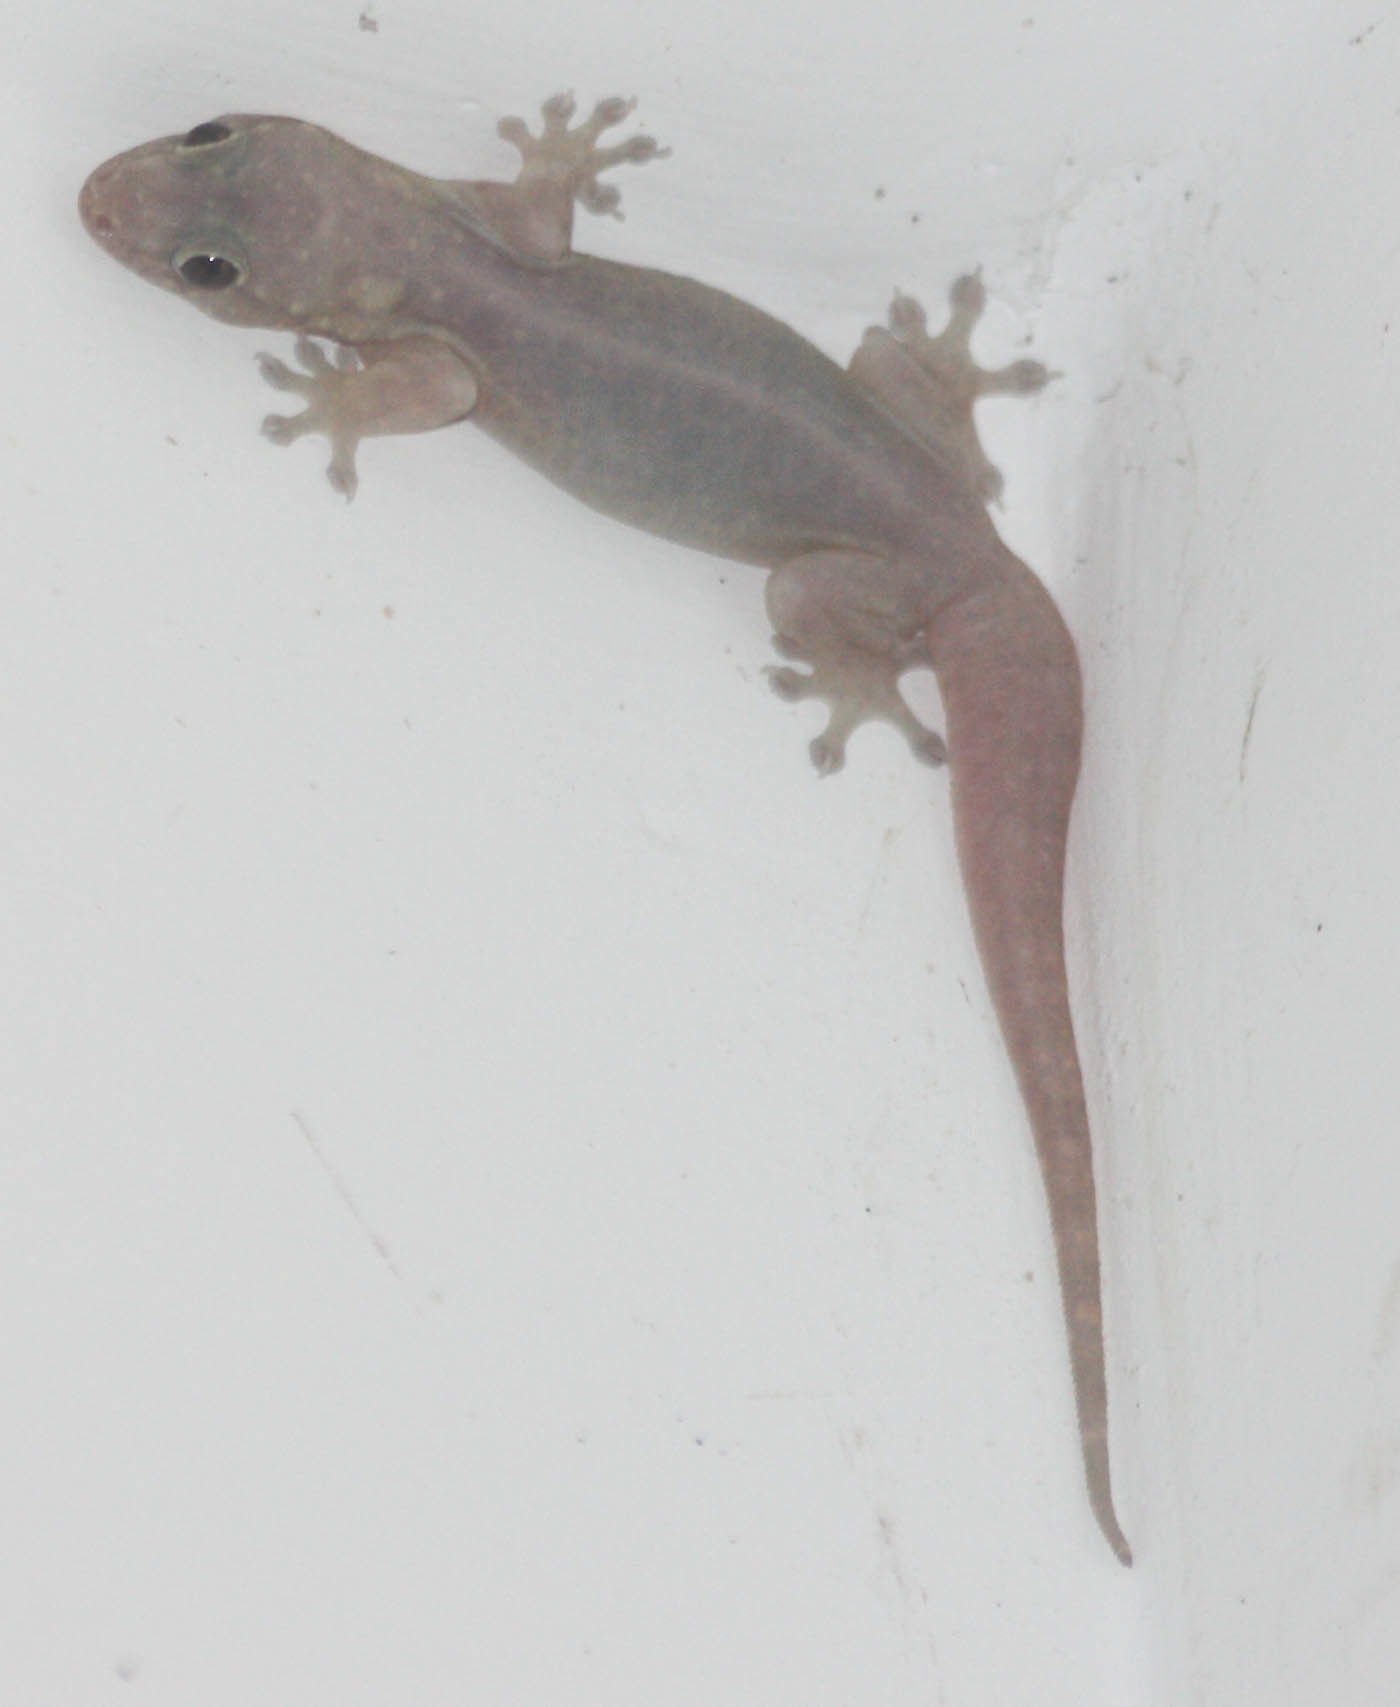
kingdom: Animalia
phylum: Chordata
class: Squamata
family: Gekkonidae
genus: Gehyra
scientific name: Gehyra mutilata
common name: Stump-toed gecko
